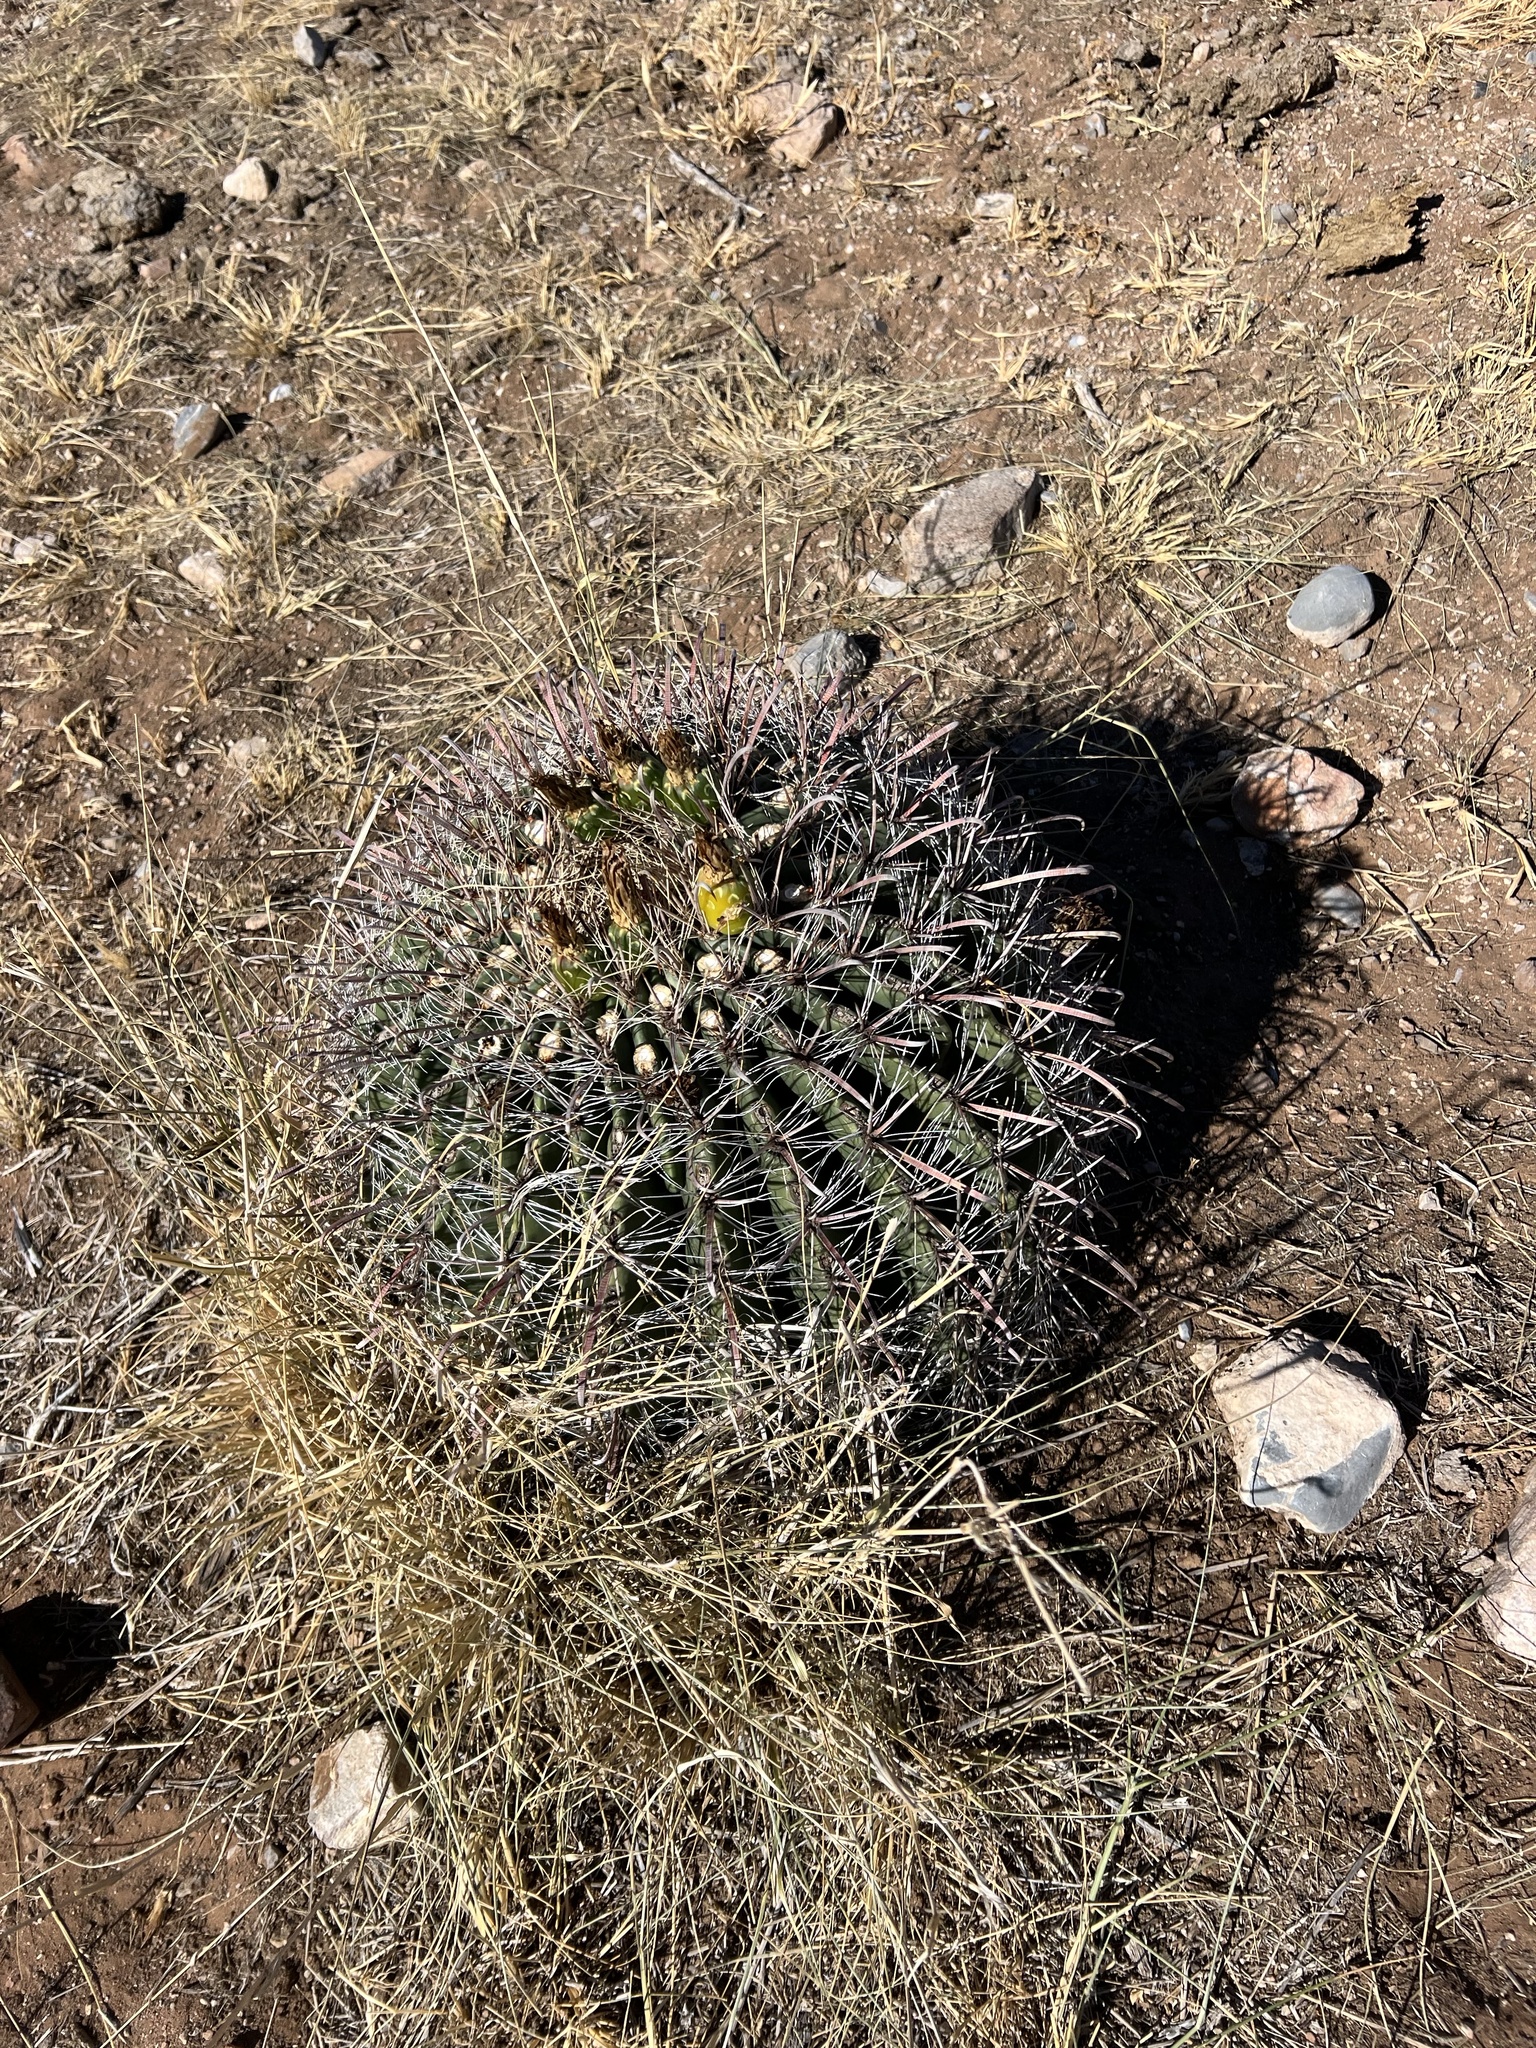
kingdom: Plantae
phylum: Tracheophyta
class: Magnoliopsida
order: Caryophyllales
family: Cactaceae
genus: Ferocactus
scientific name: Ferocactus wislizeni
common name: Candy barrel cactus
